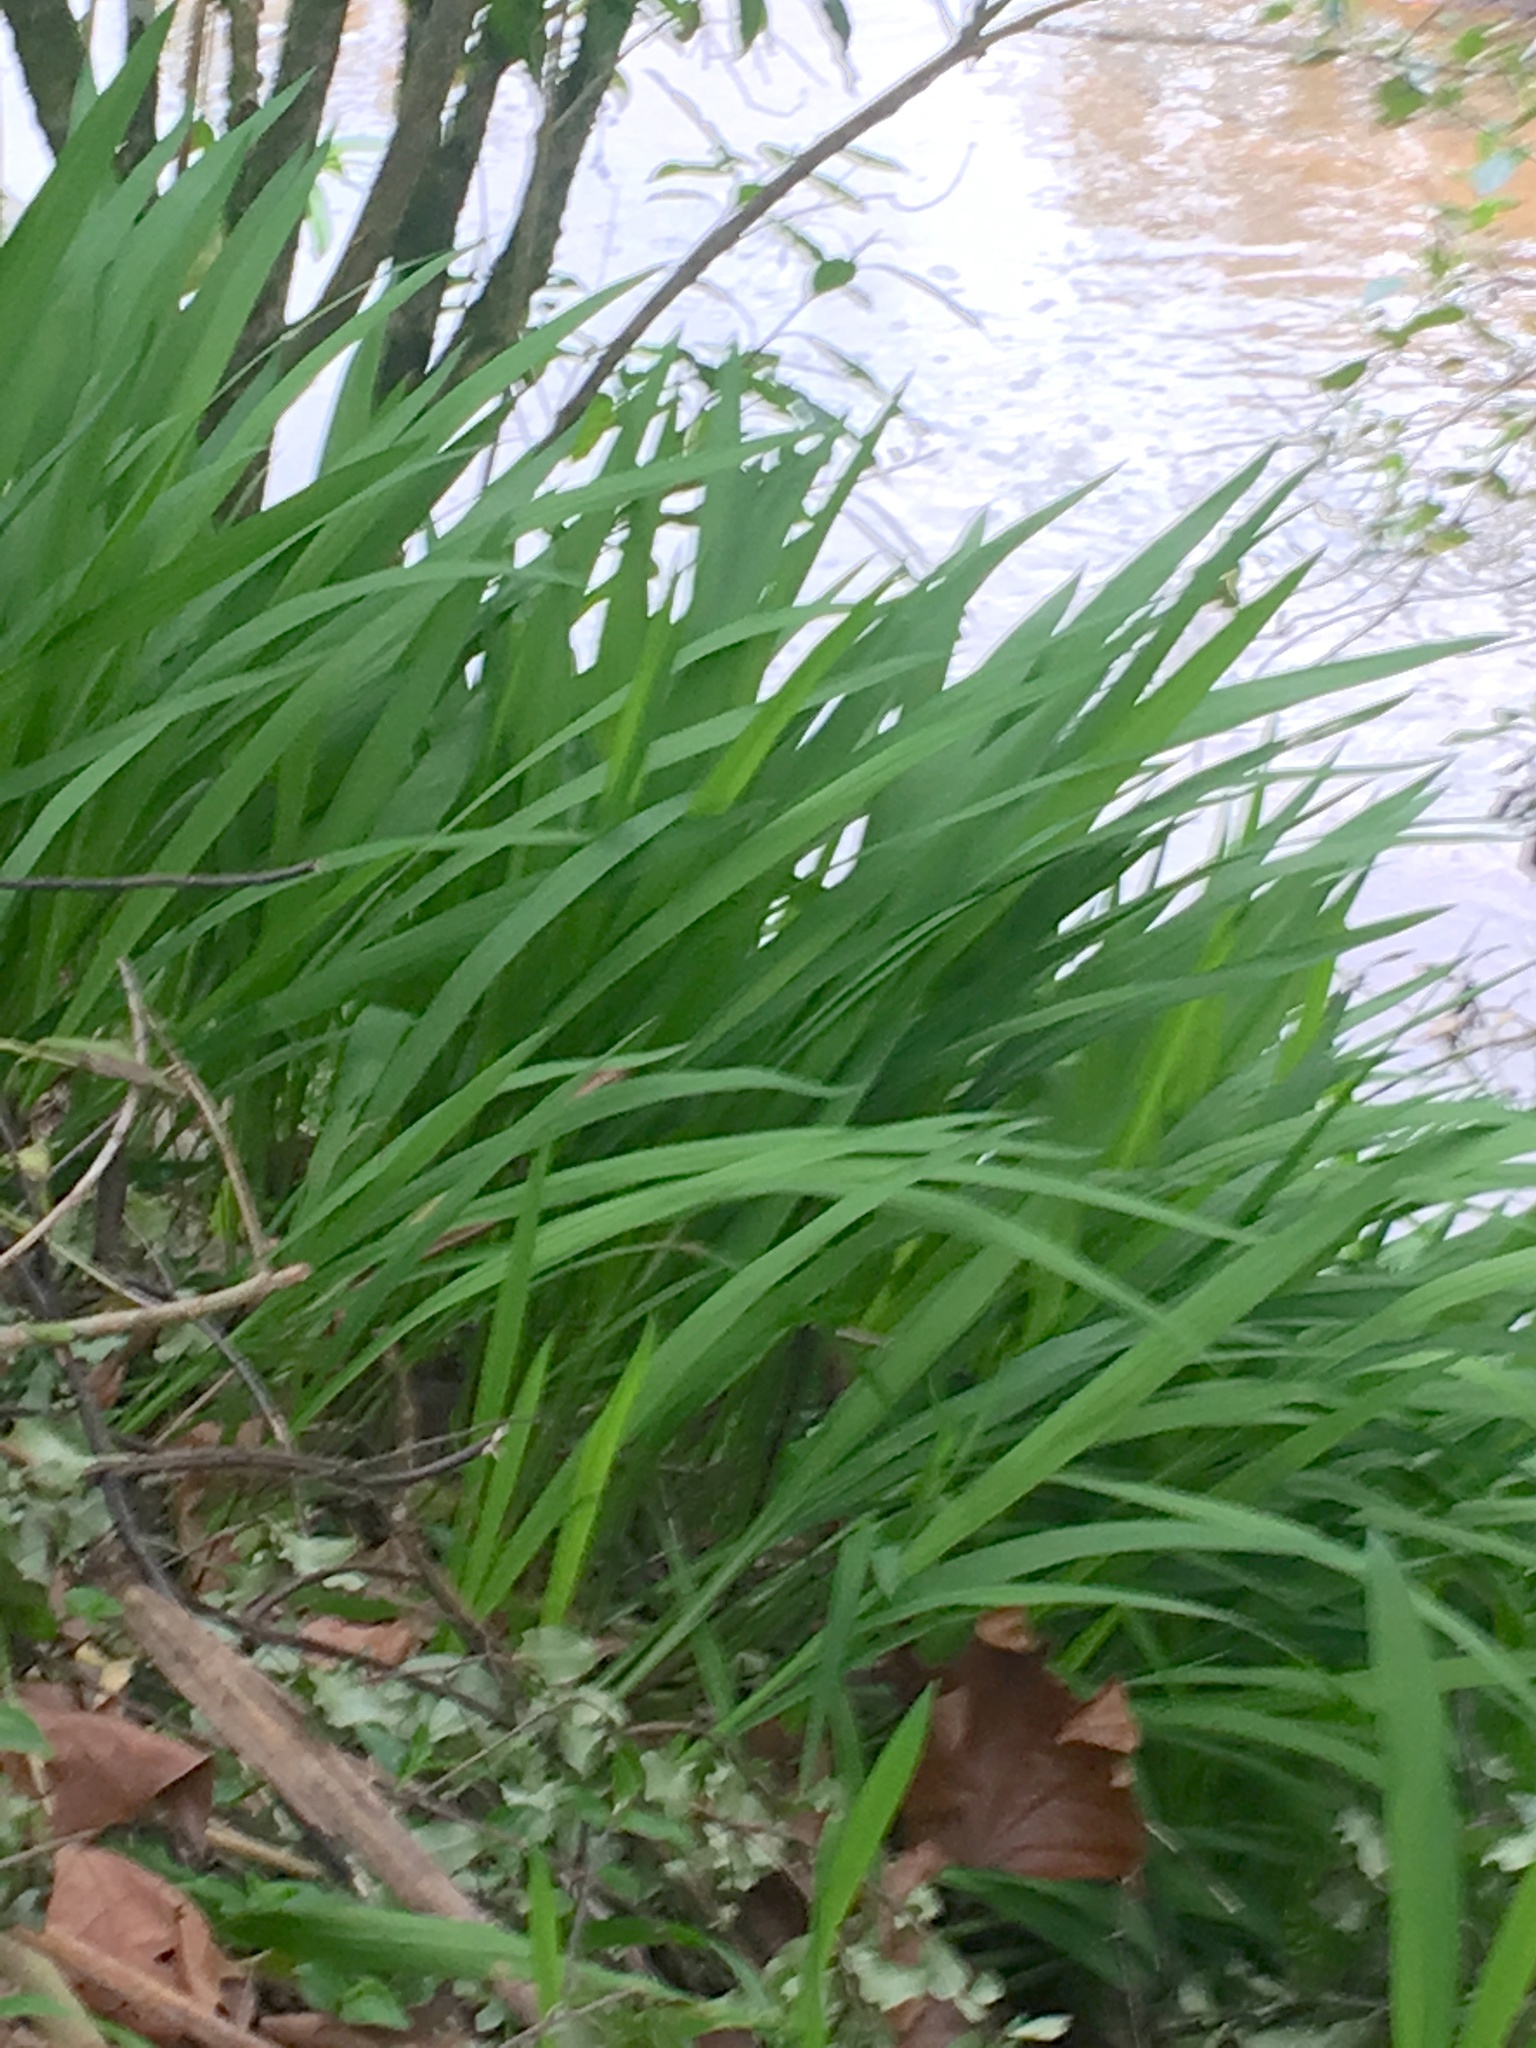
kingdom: Plantae
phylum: Tracheophyta
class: Liliopsida
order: Asparagales
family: Iridaceae
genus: Crocosmia
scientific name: Crocosmia crocosmiiflora
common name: Montbretia
